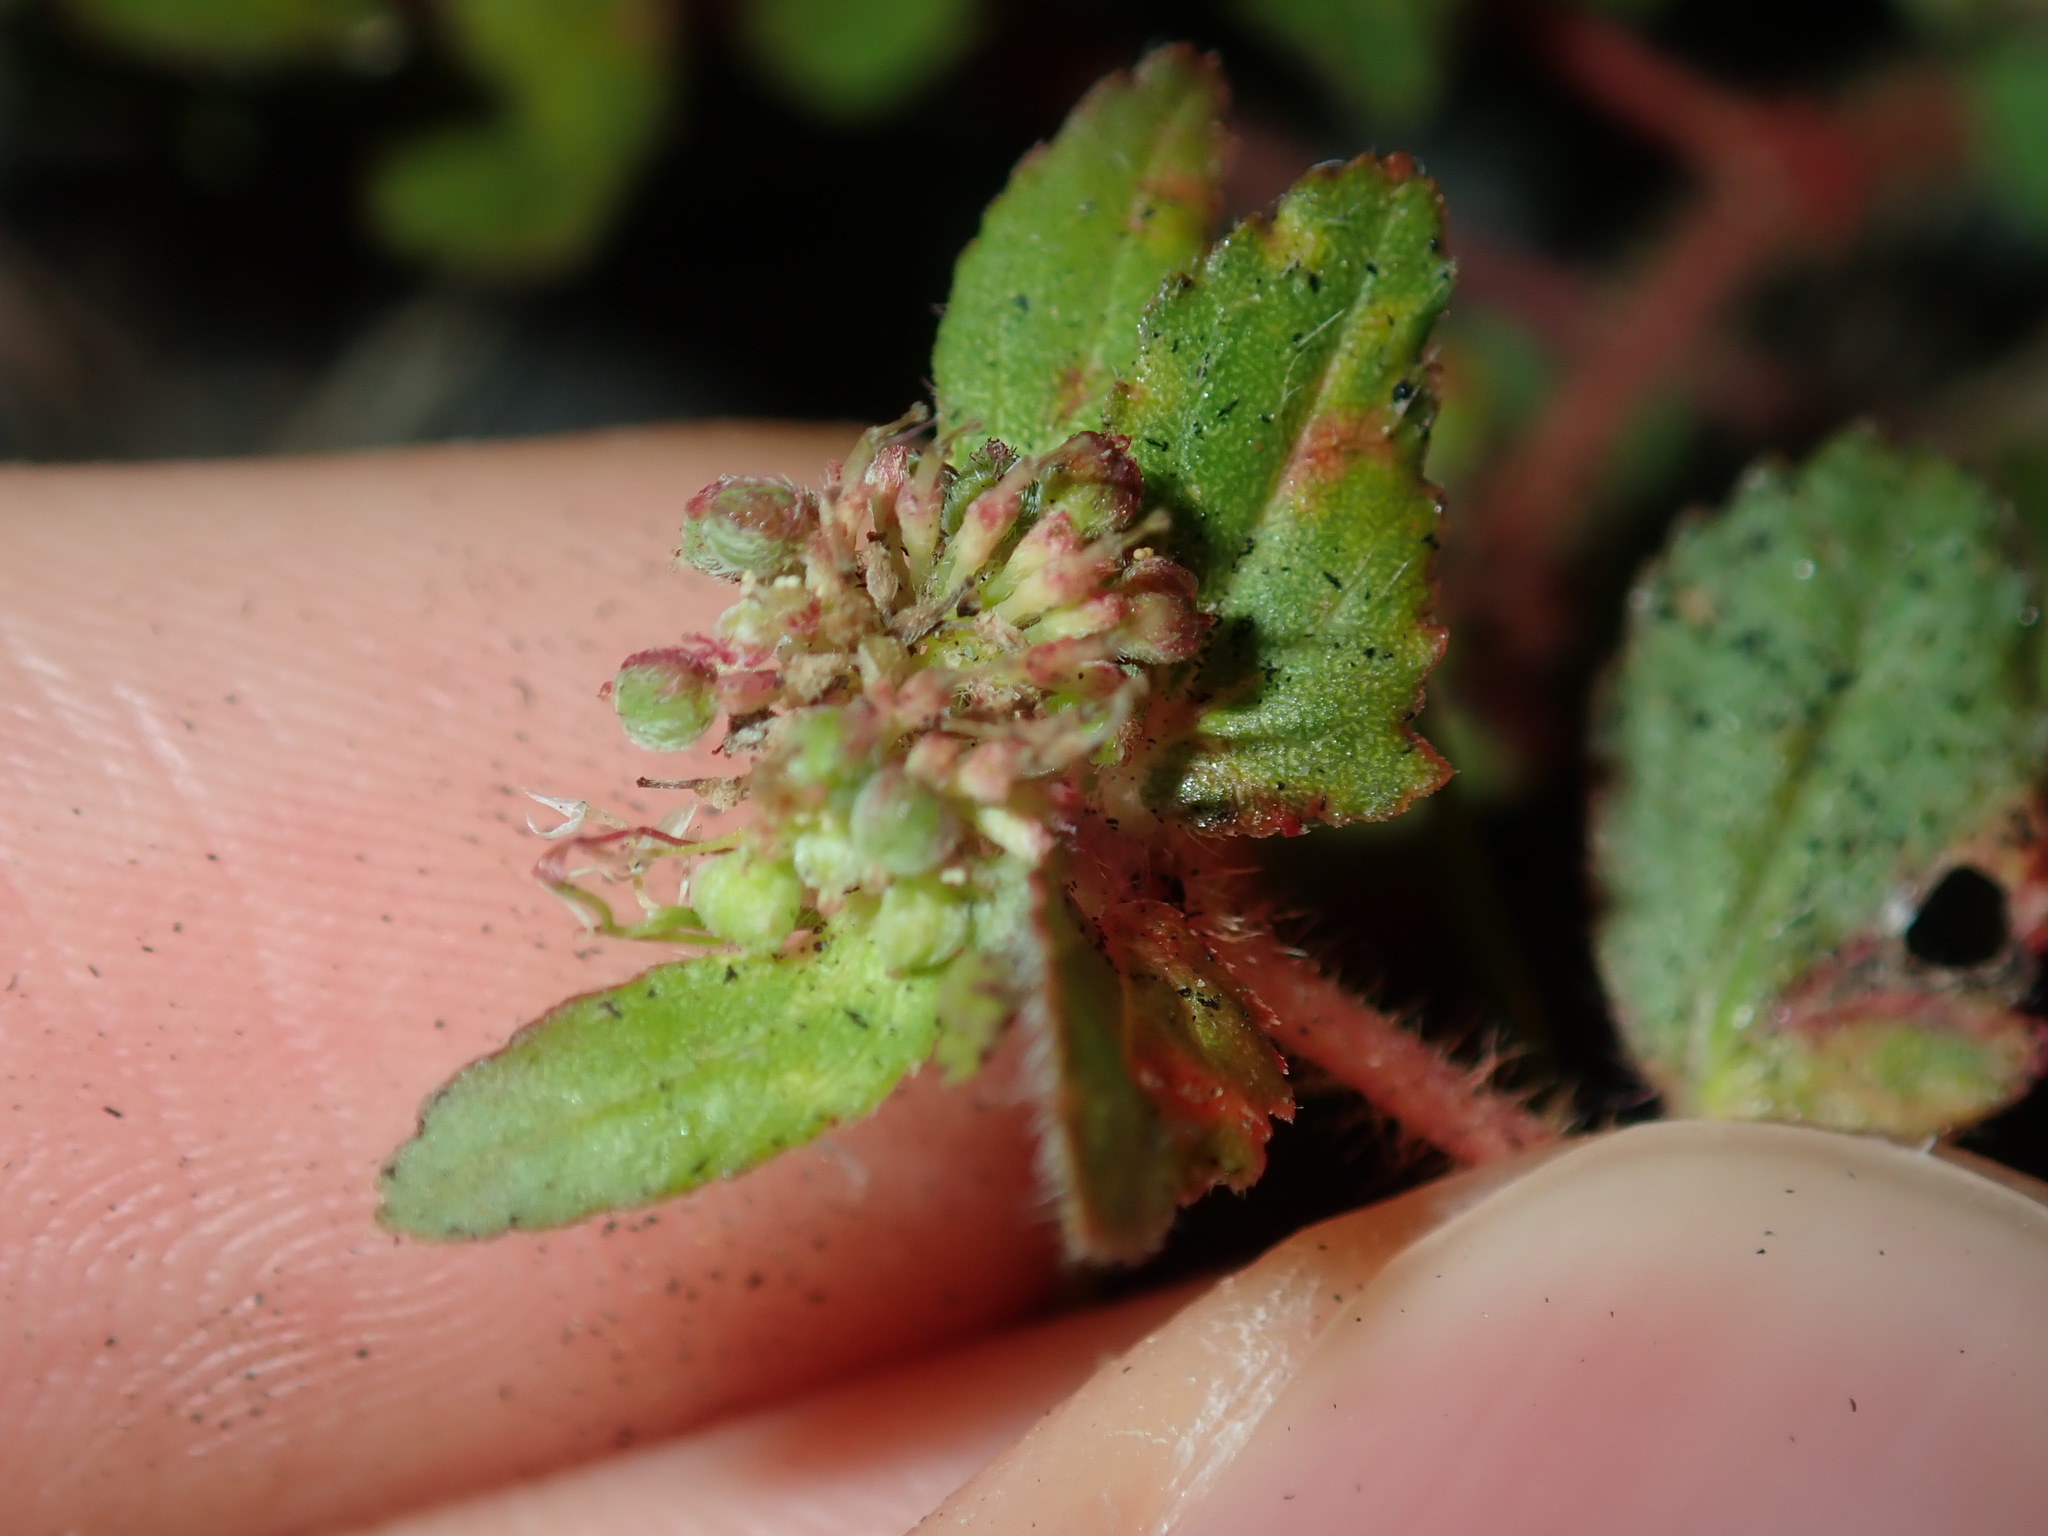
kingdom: Plantae
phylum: Tracheophyta
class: Magnoliopsida
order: Malpighiales
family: Euphorbiaceae
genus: Euphorbia
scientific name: Euphorbia ophthalmica
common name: Florida hammock sandmat
